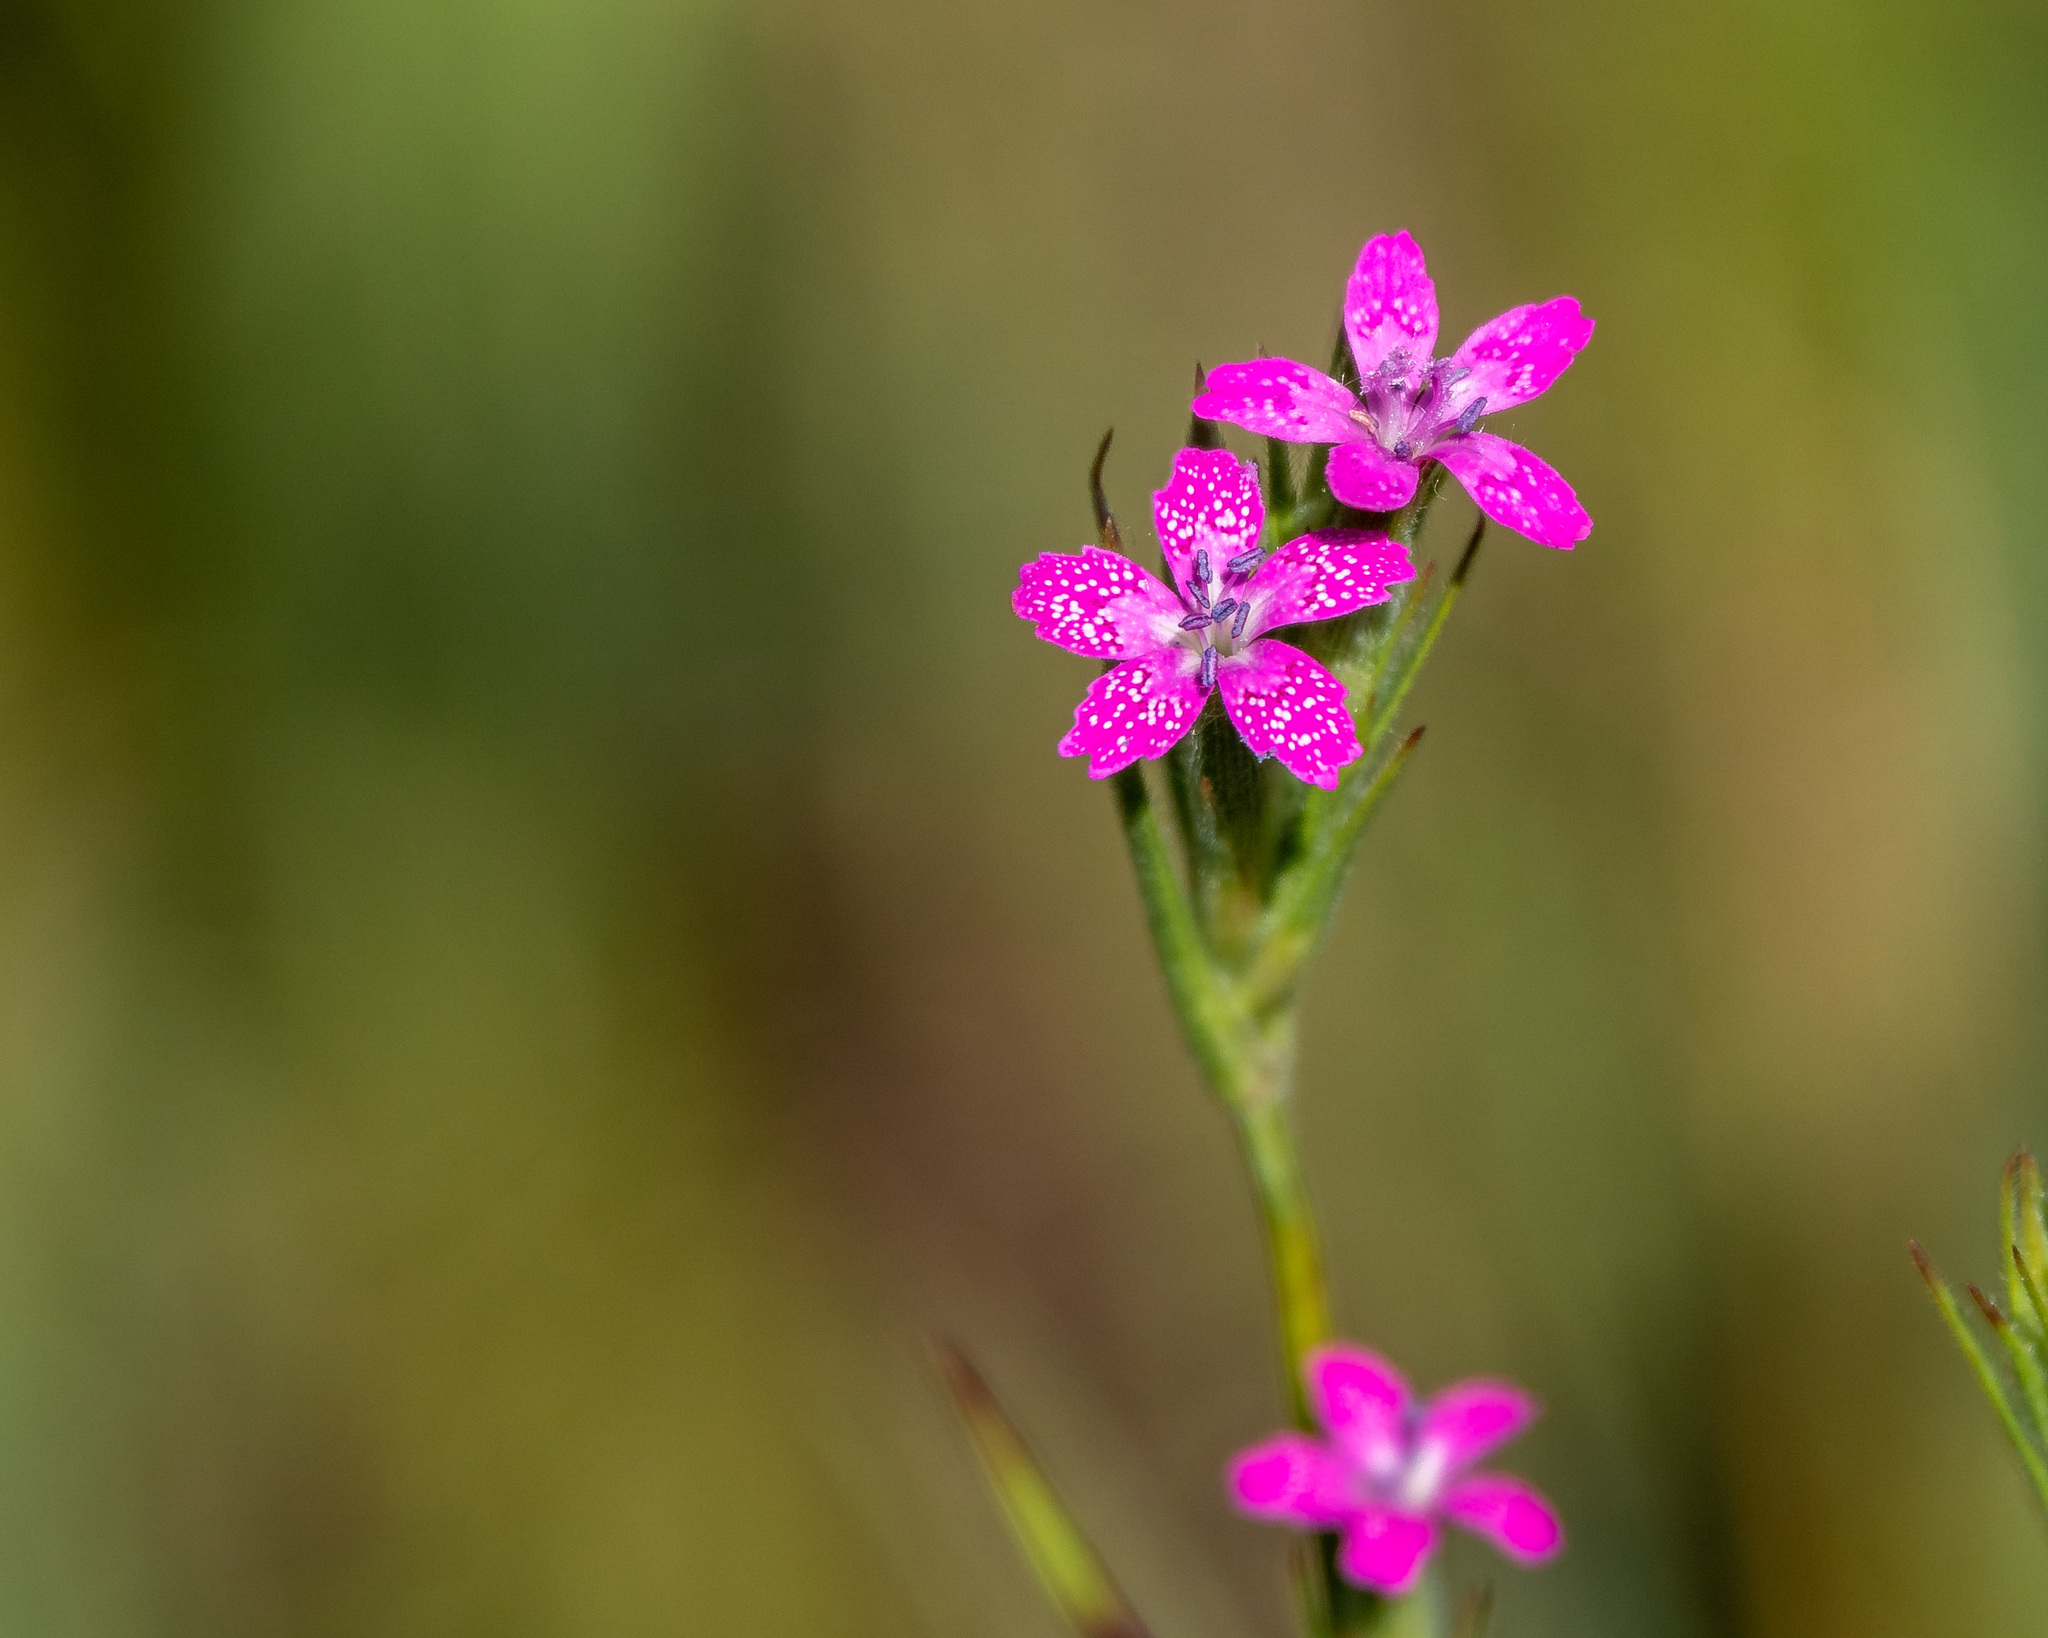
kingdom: Plantae
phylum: Tracheophyta
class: Magnoliopsida
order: Caryophyllales
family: Caryophyllaceae
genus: Dianthus
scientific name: Dianthus armeria
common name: Deptford pink
